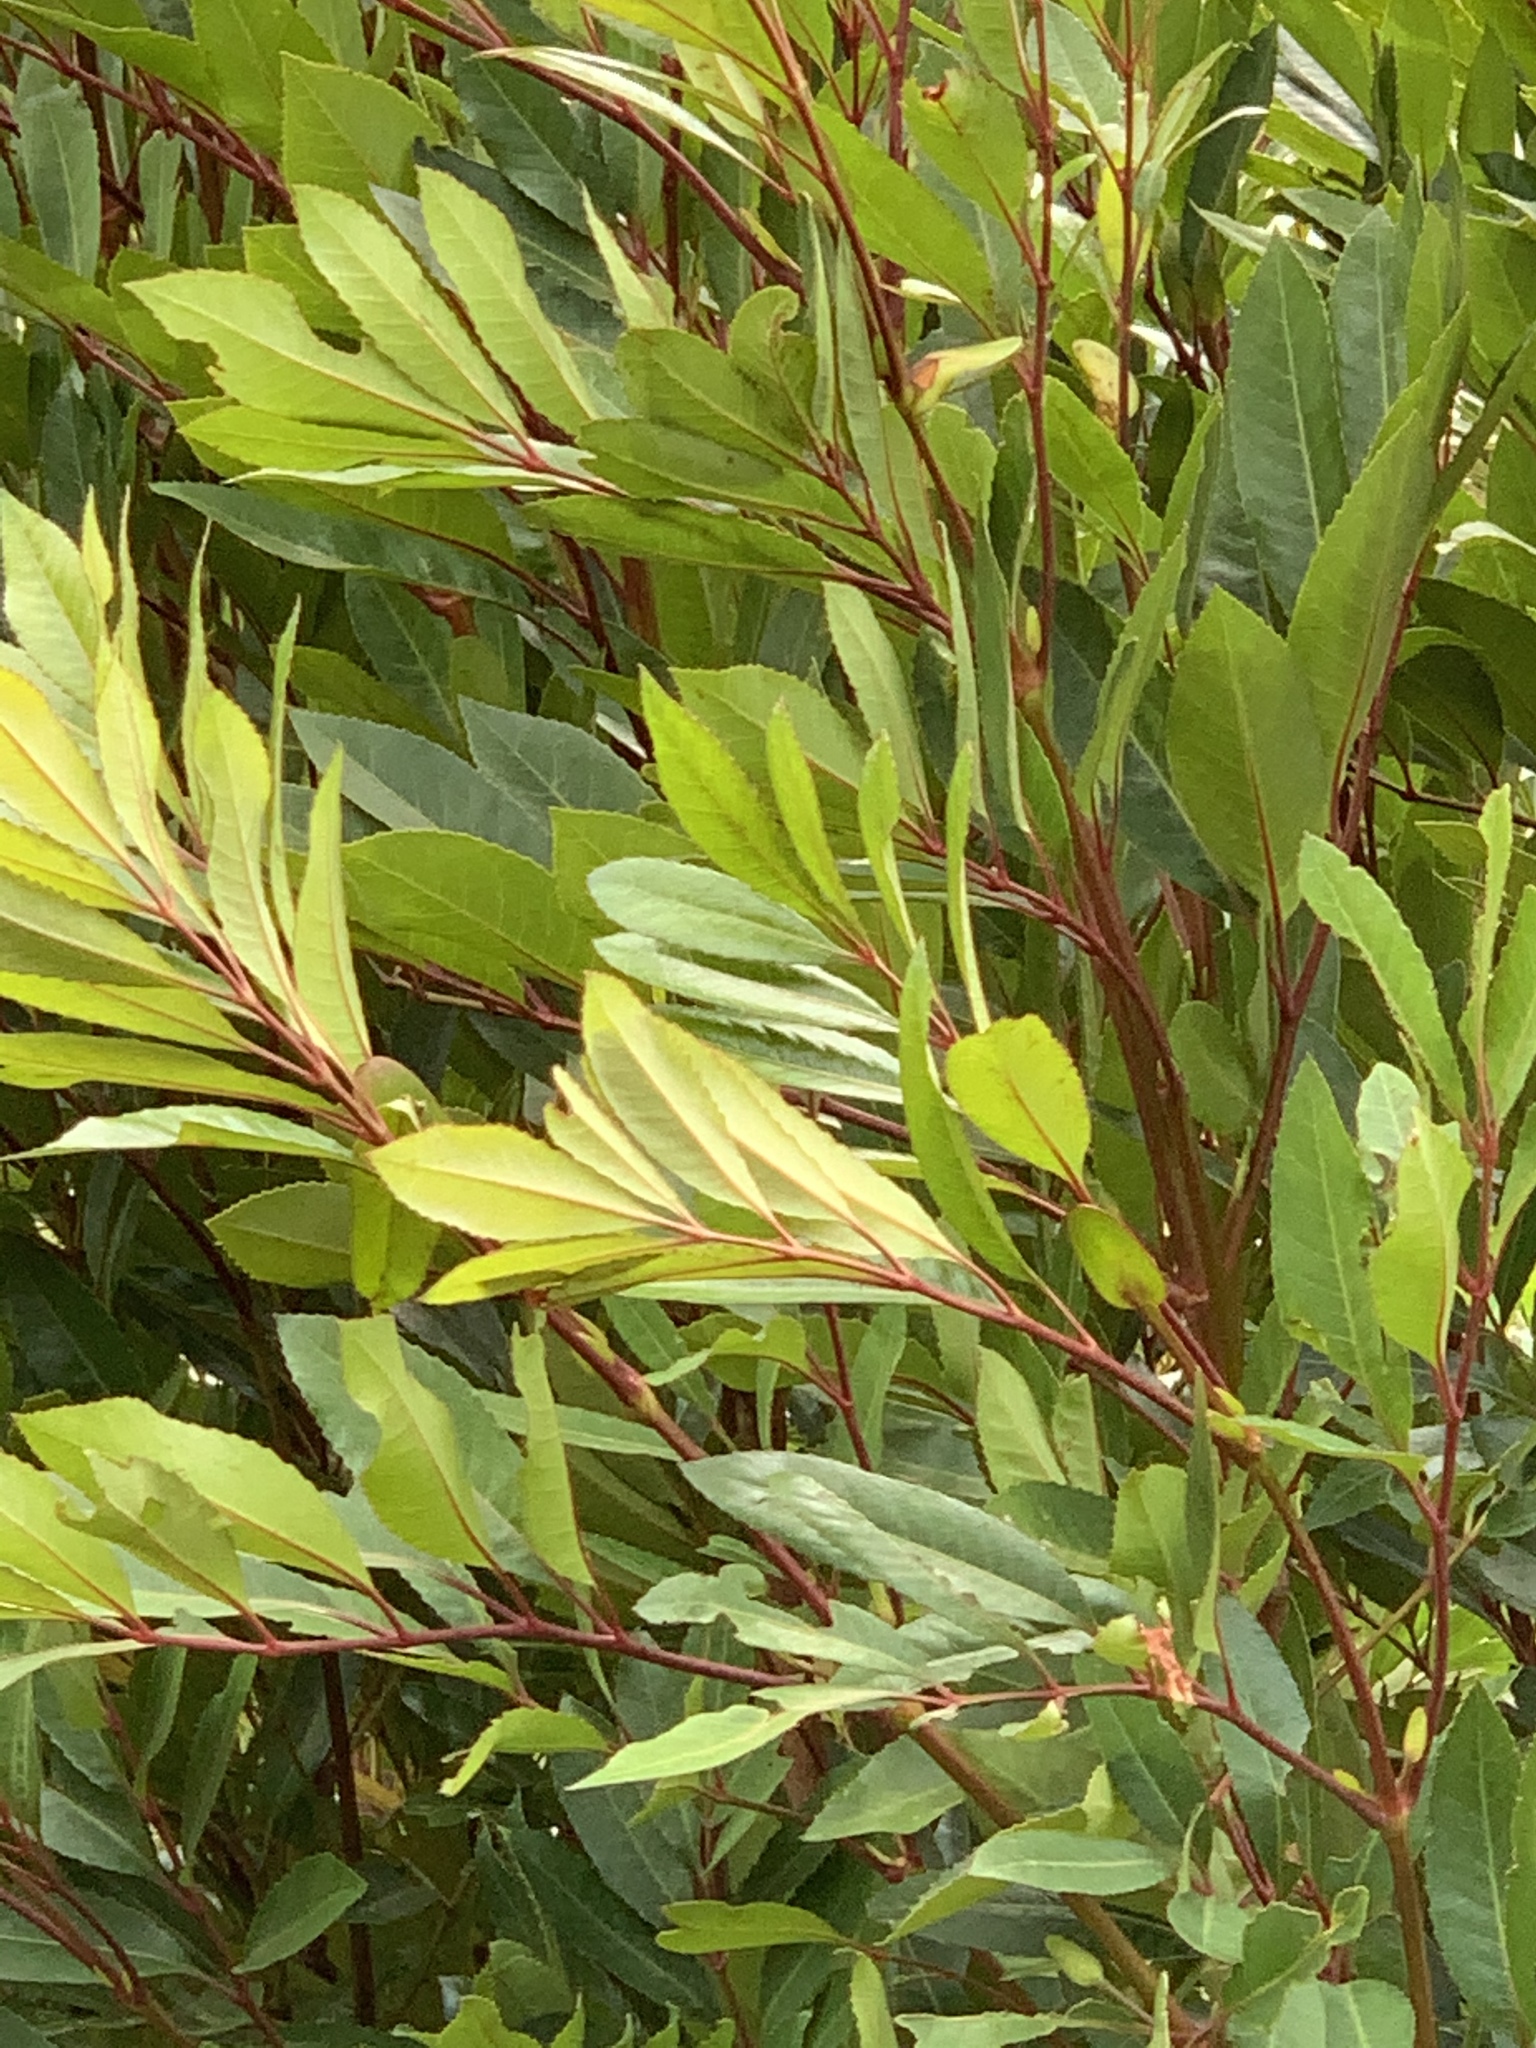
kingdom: Plantae
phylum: Tracheophyta
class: Magnoliopsida
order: Oxalidales
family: Cunoniaceae
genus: Cunonia
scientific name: Cunonia capensis
